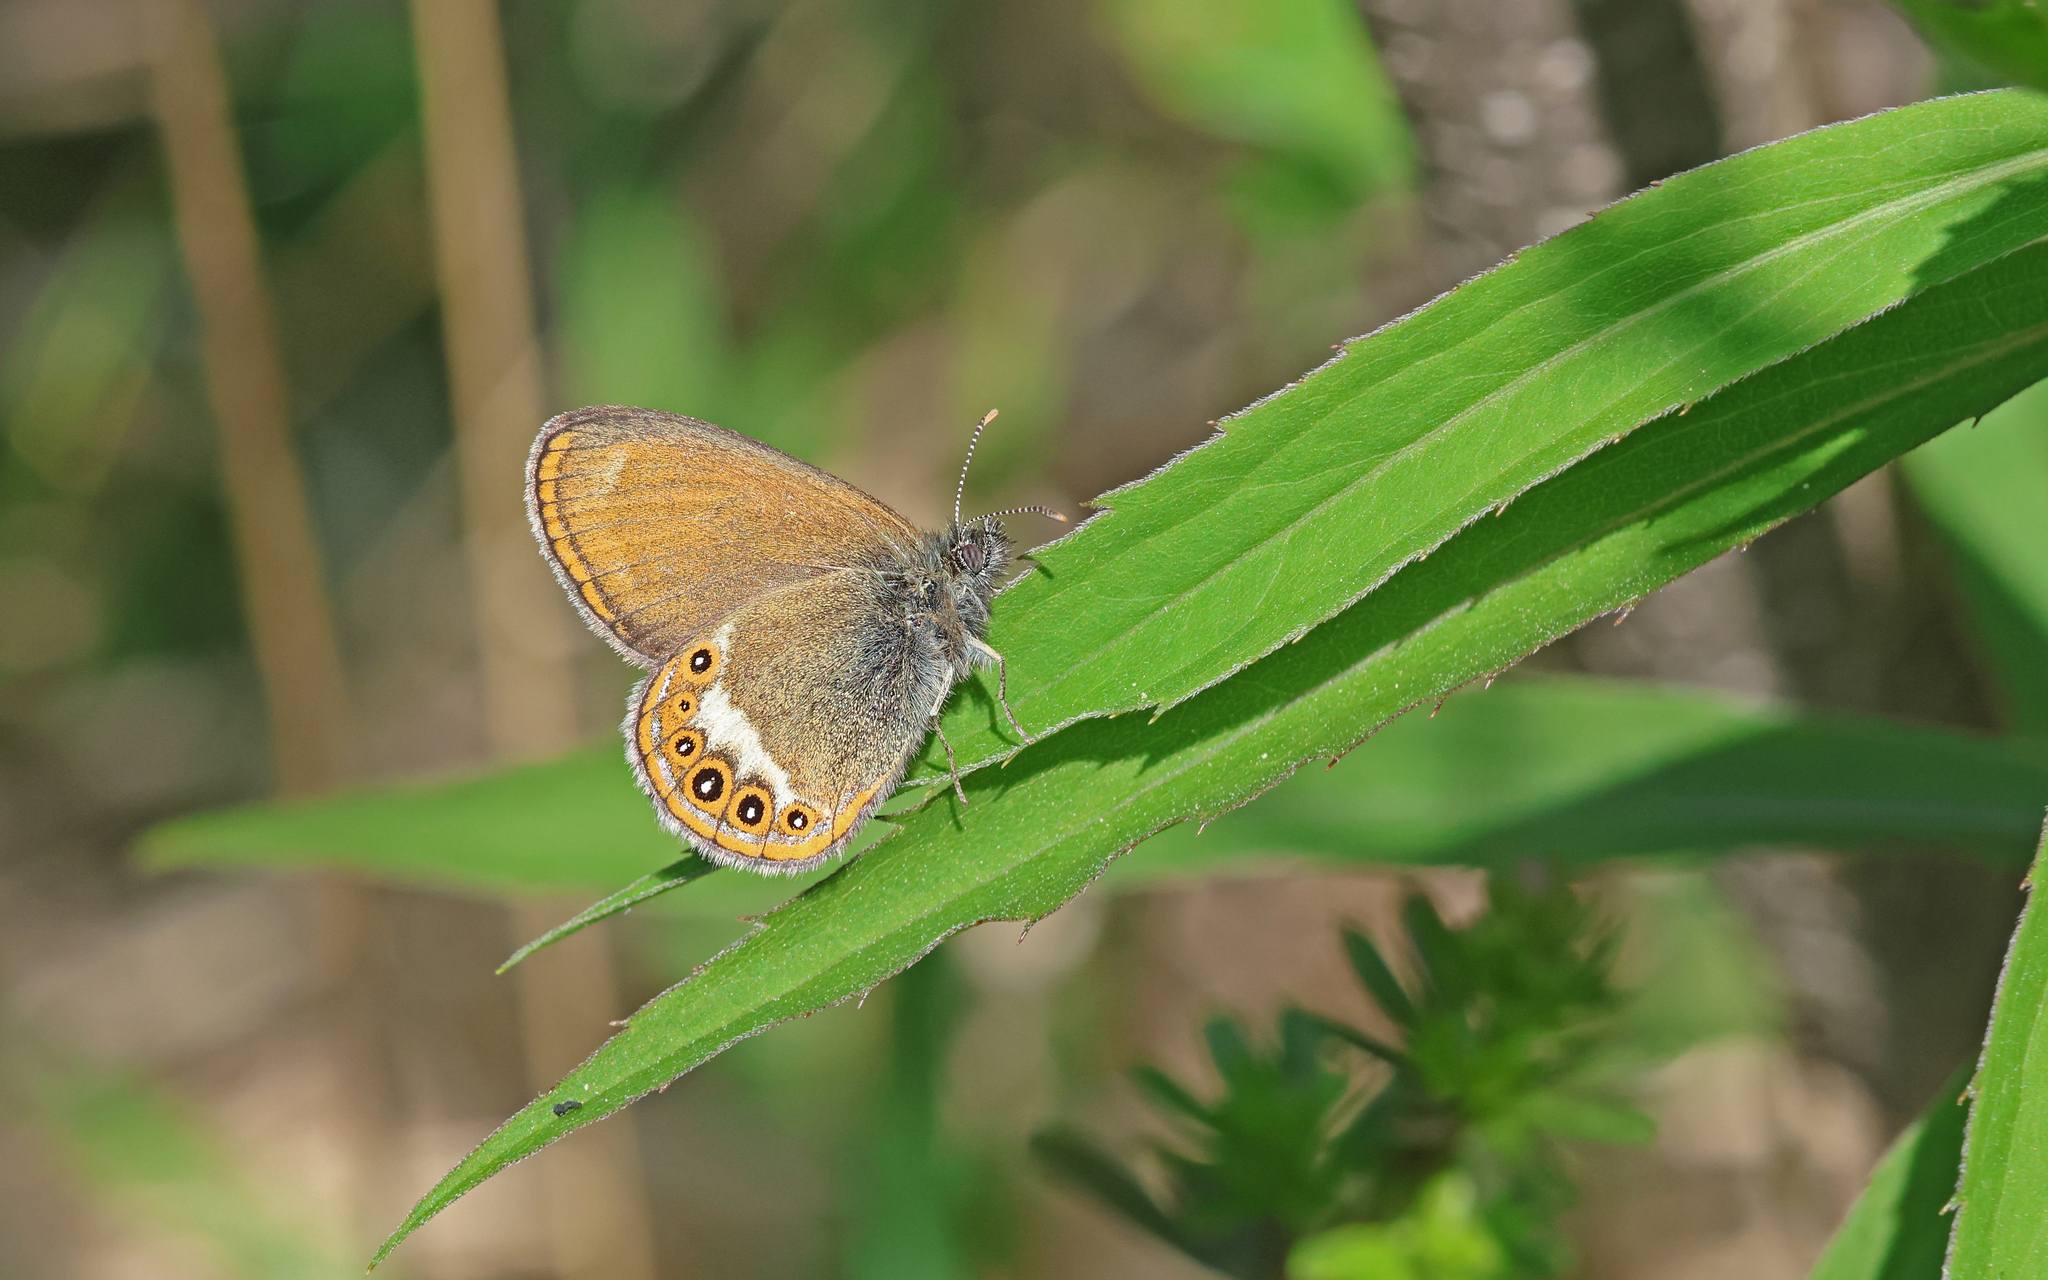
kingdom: Animalia
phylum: Arthropoda
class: Insecta
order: Lepidoptera
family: Nymphalidae
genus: Coenonympha
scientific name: Coenonympha hero
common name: Scarce heath
